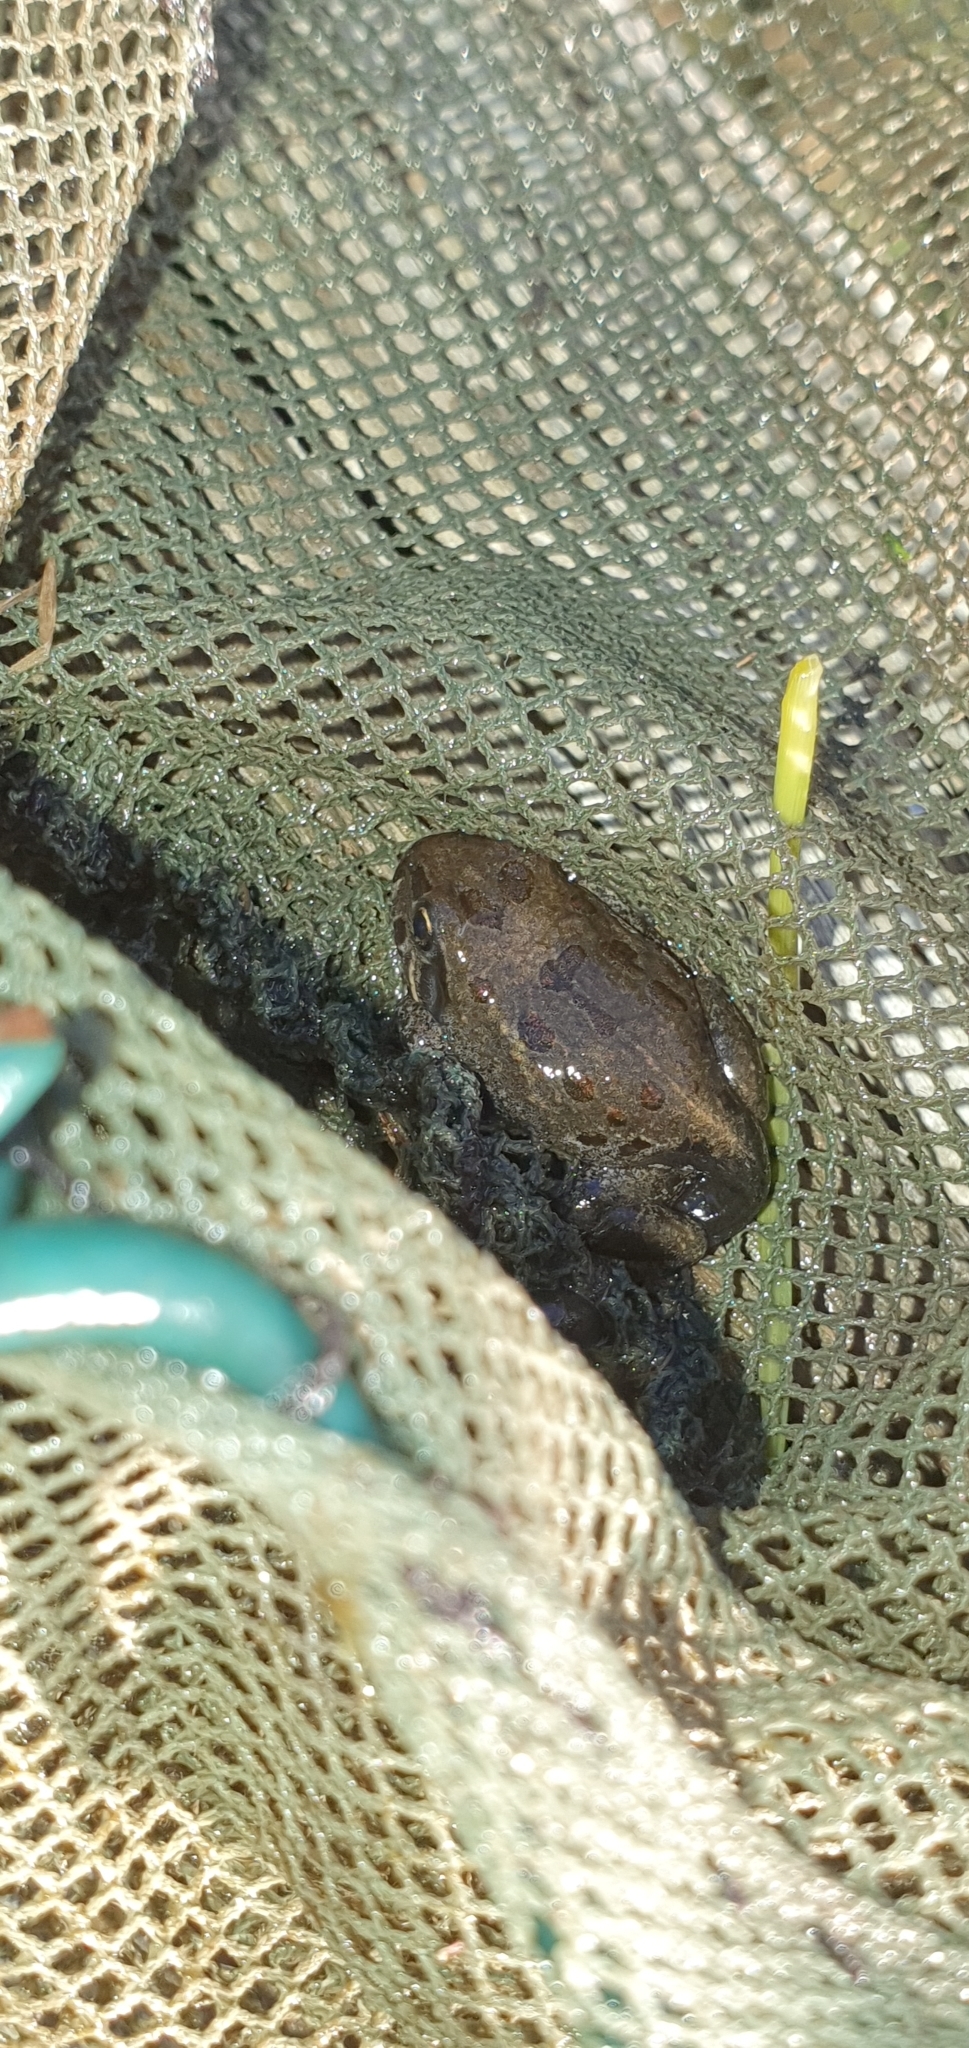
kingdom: Animalia
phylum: Chordata
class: Amphibia
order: Anura
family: Limnodynastidae
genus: Limnodynastes
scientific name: Limnodynastes salmini
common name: Salmon-striped frog
